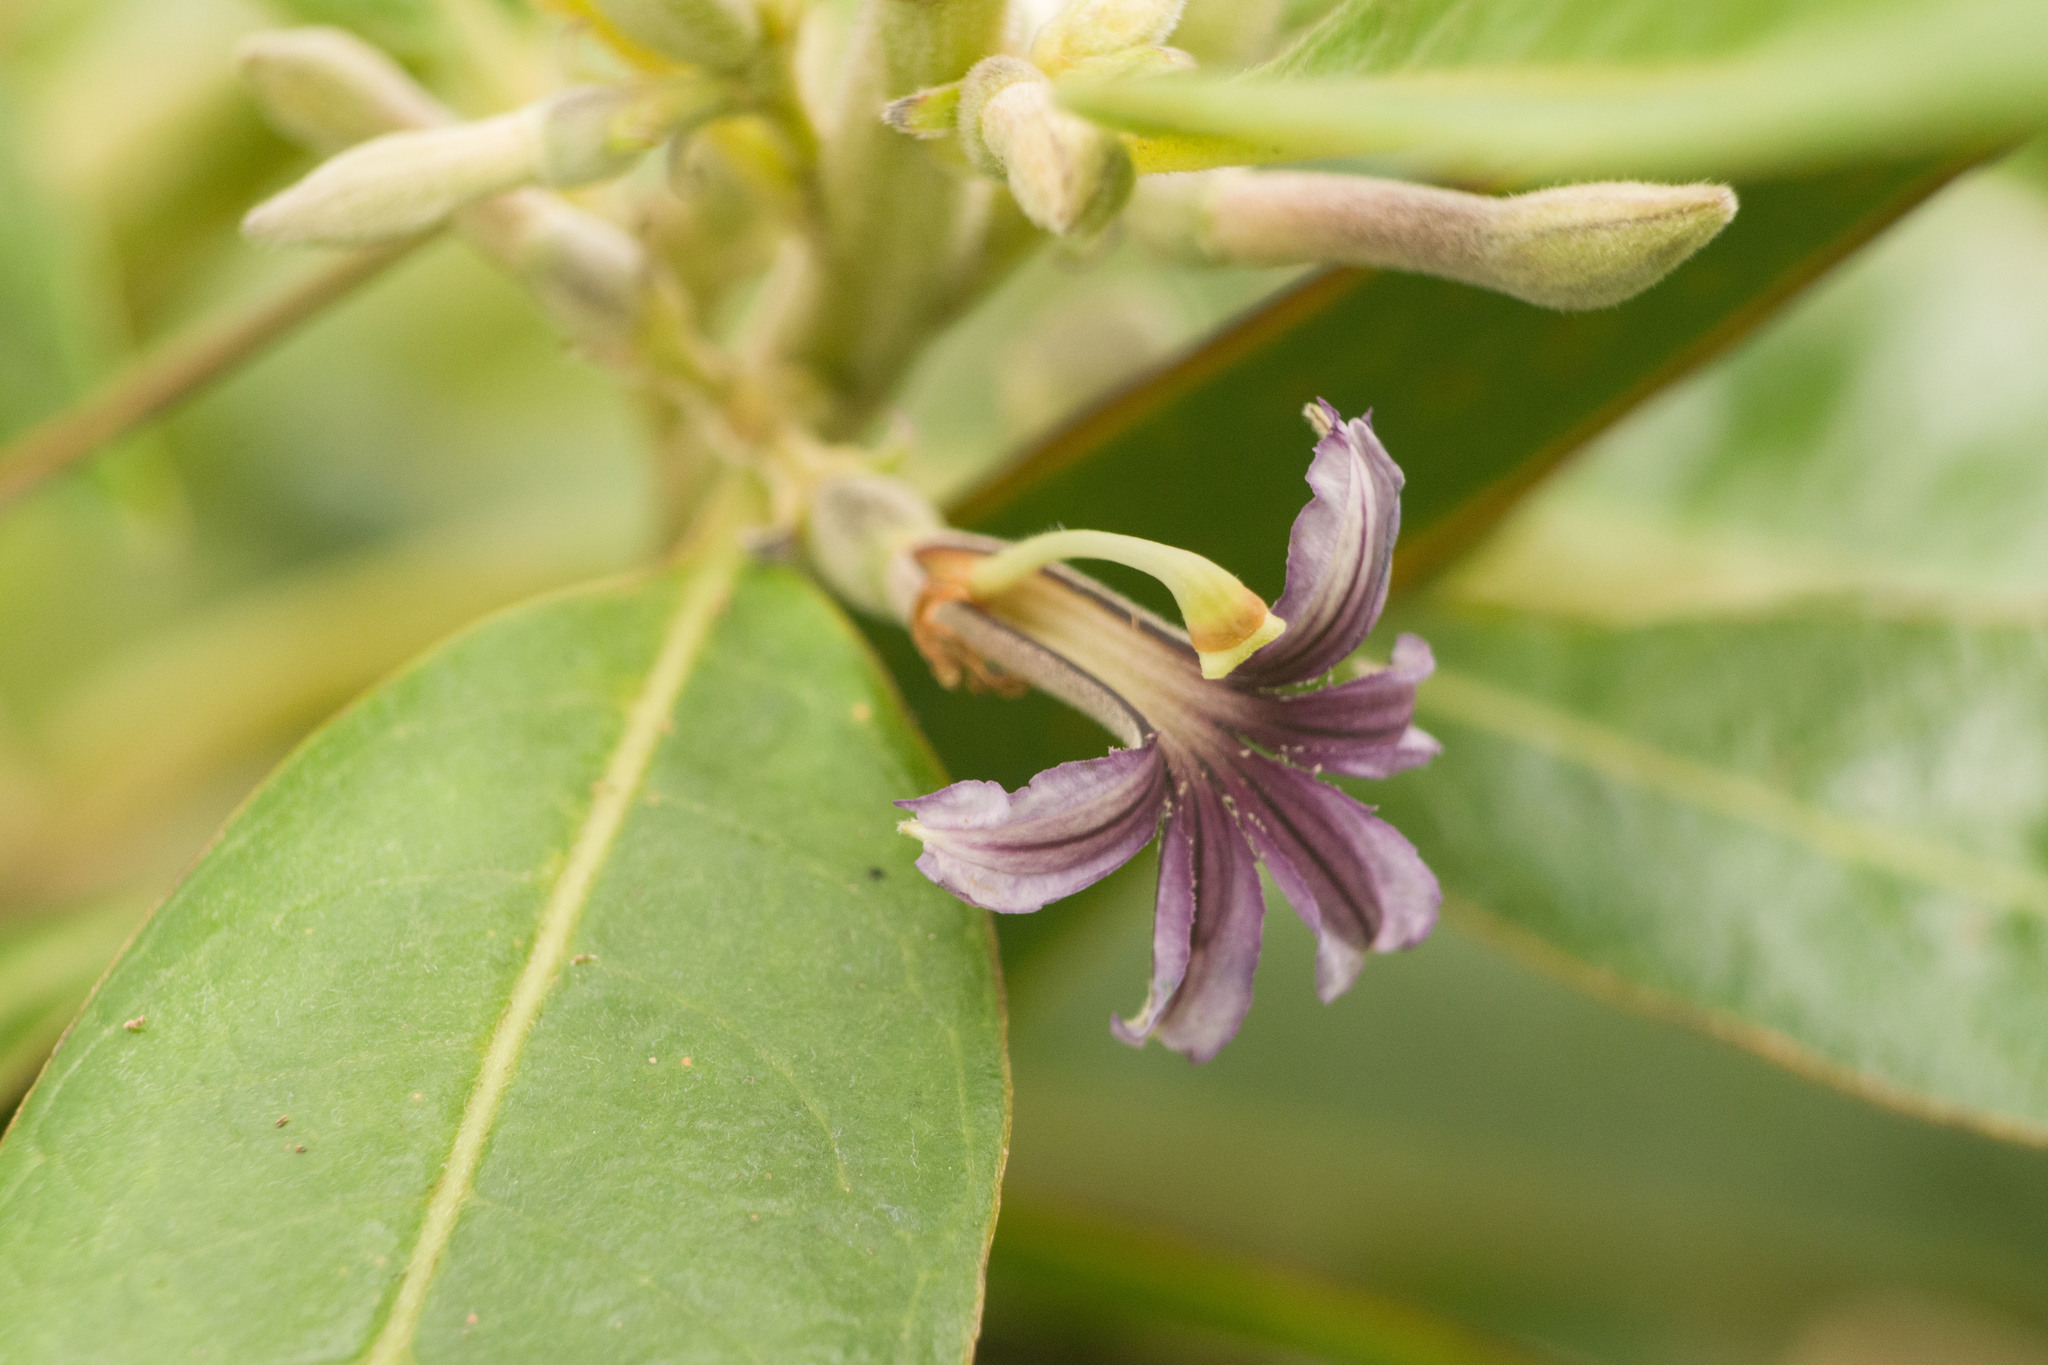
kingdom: Plantae
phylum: Tracheophyta
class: Magnoliopsida
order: Asterales
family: Goodeniaceae
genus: Scaevola
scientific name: Scaevola mollis
